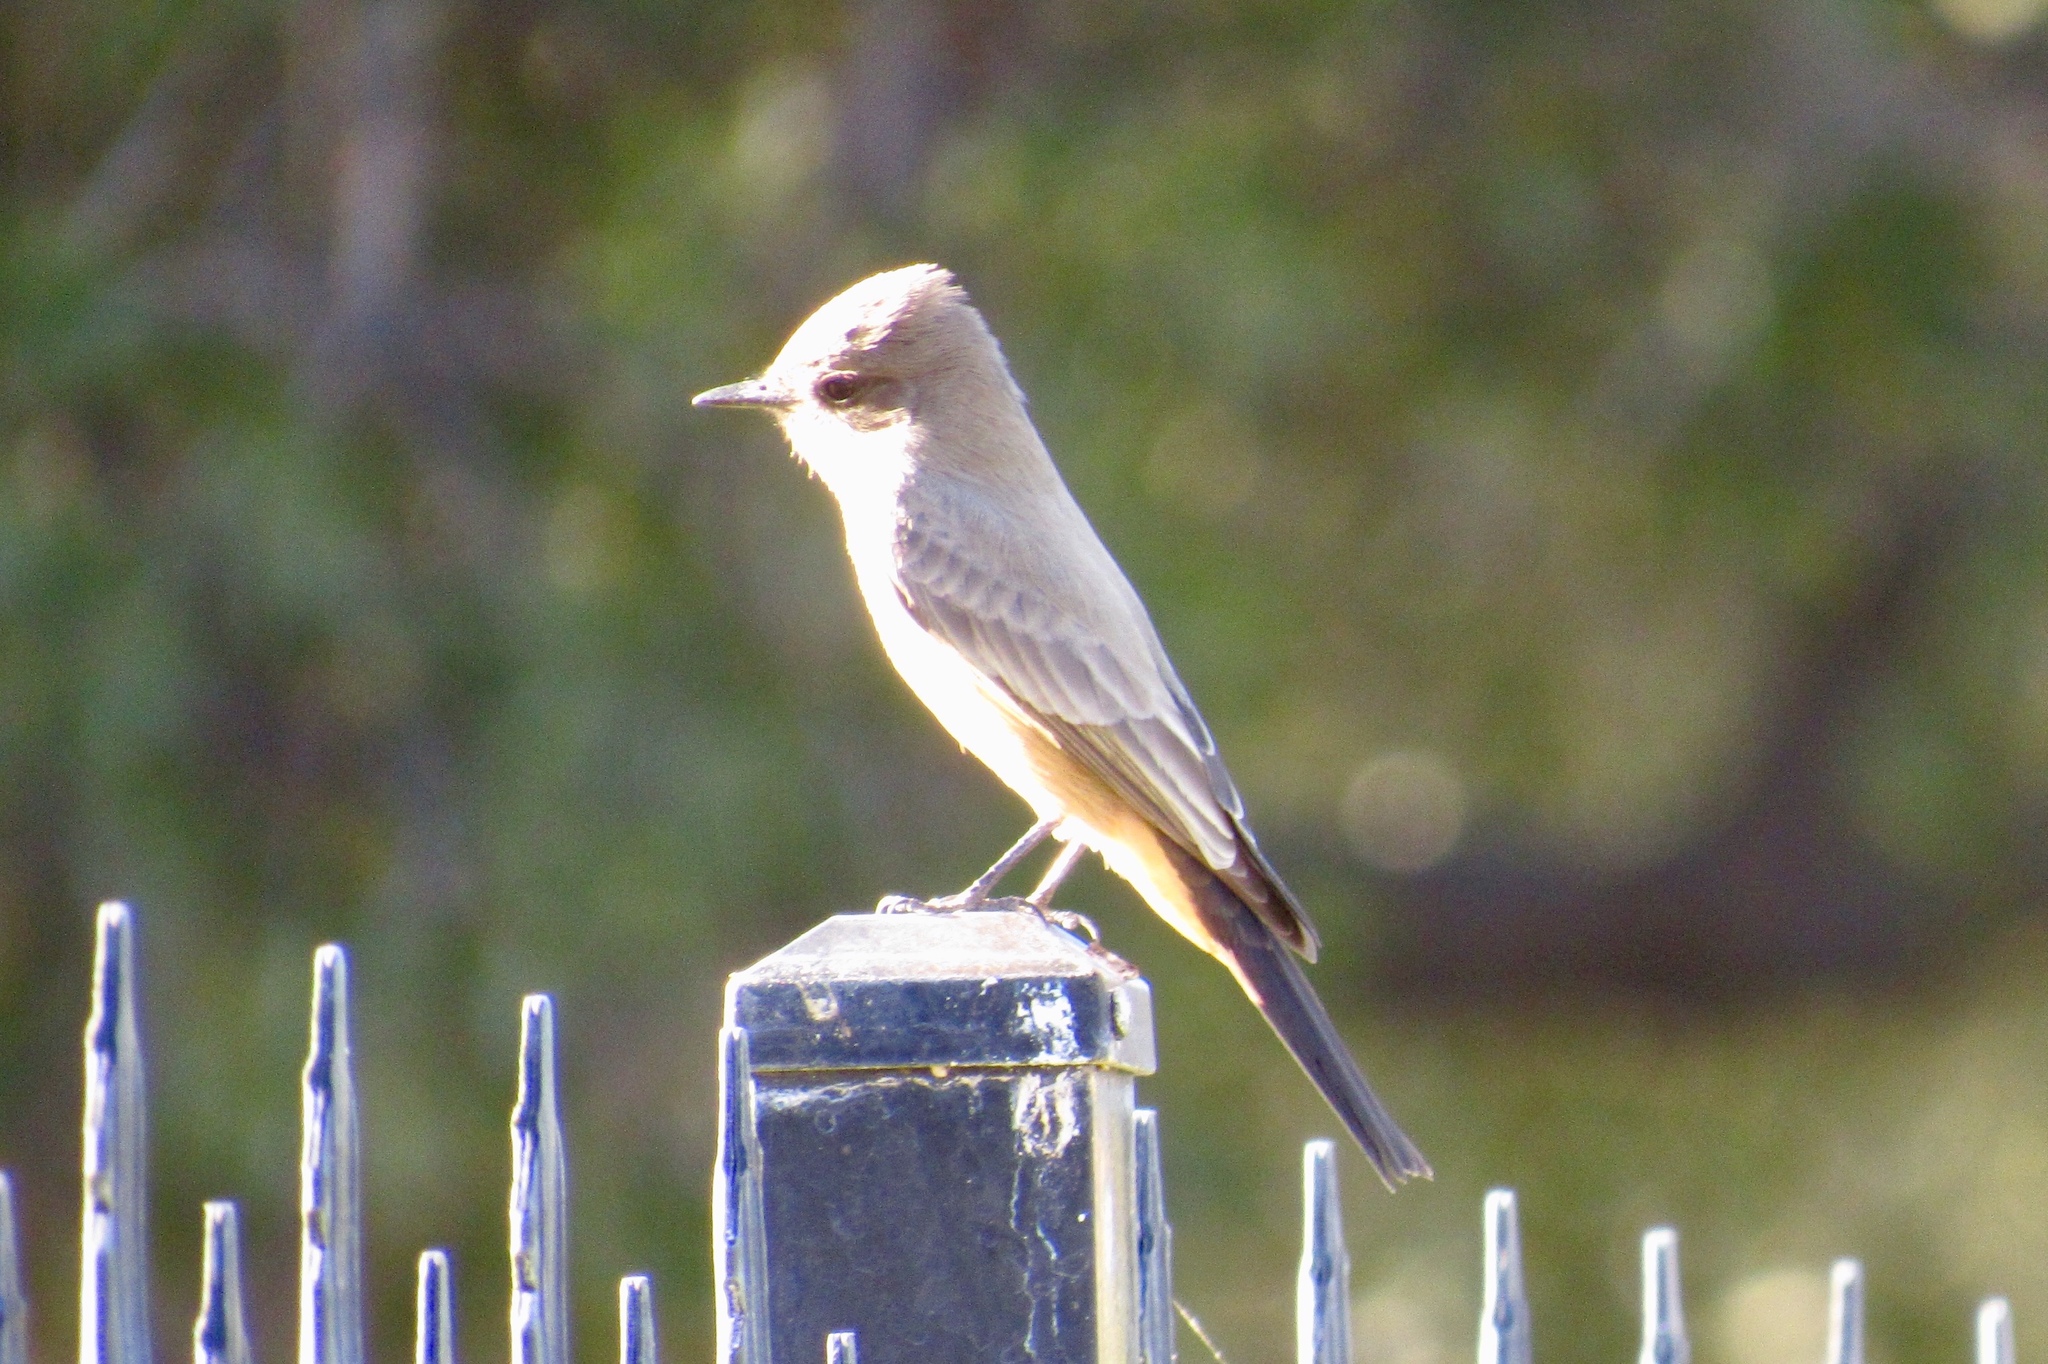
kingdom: Animalia
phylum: Chordata
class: Aves
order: Passeriformes
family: Tyrannidae
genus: Sayornis
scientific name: Sayornis saya
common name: Say's phoebe
